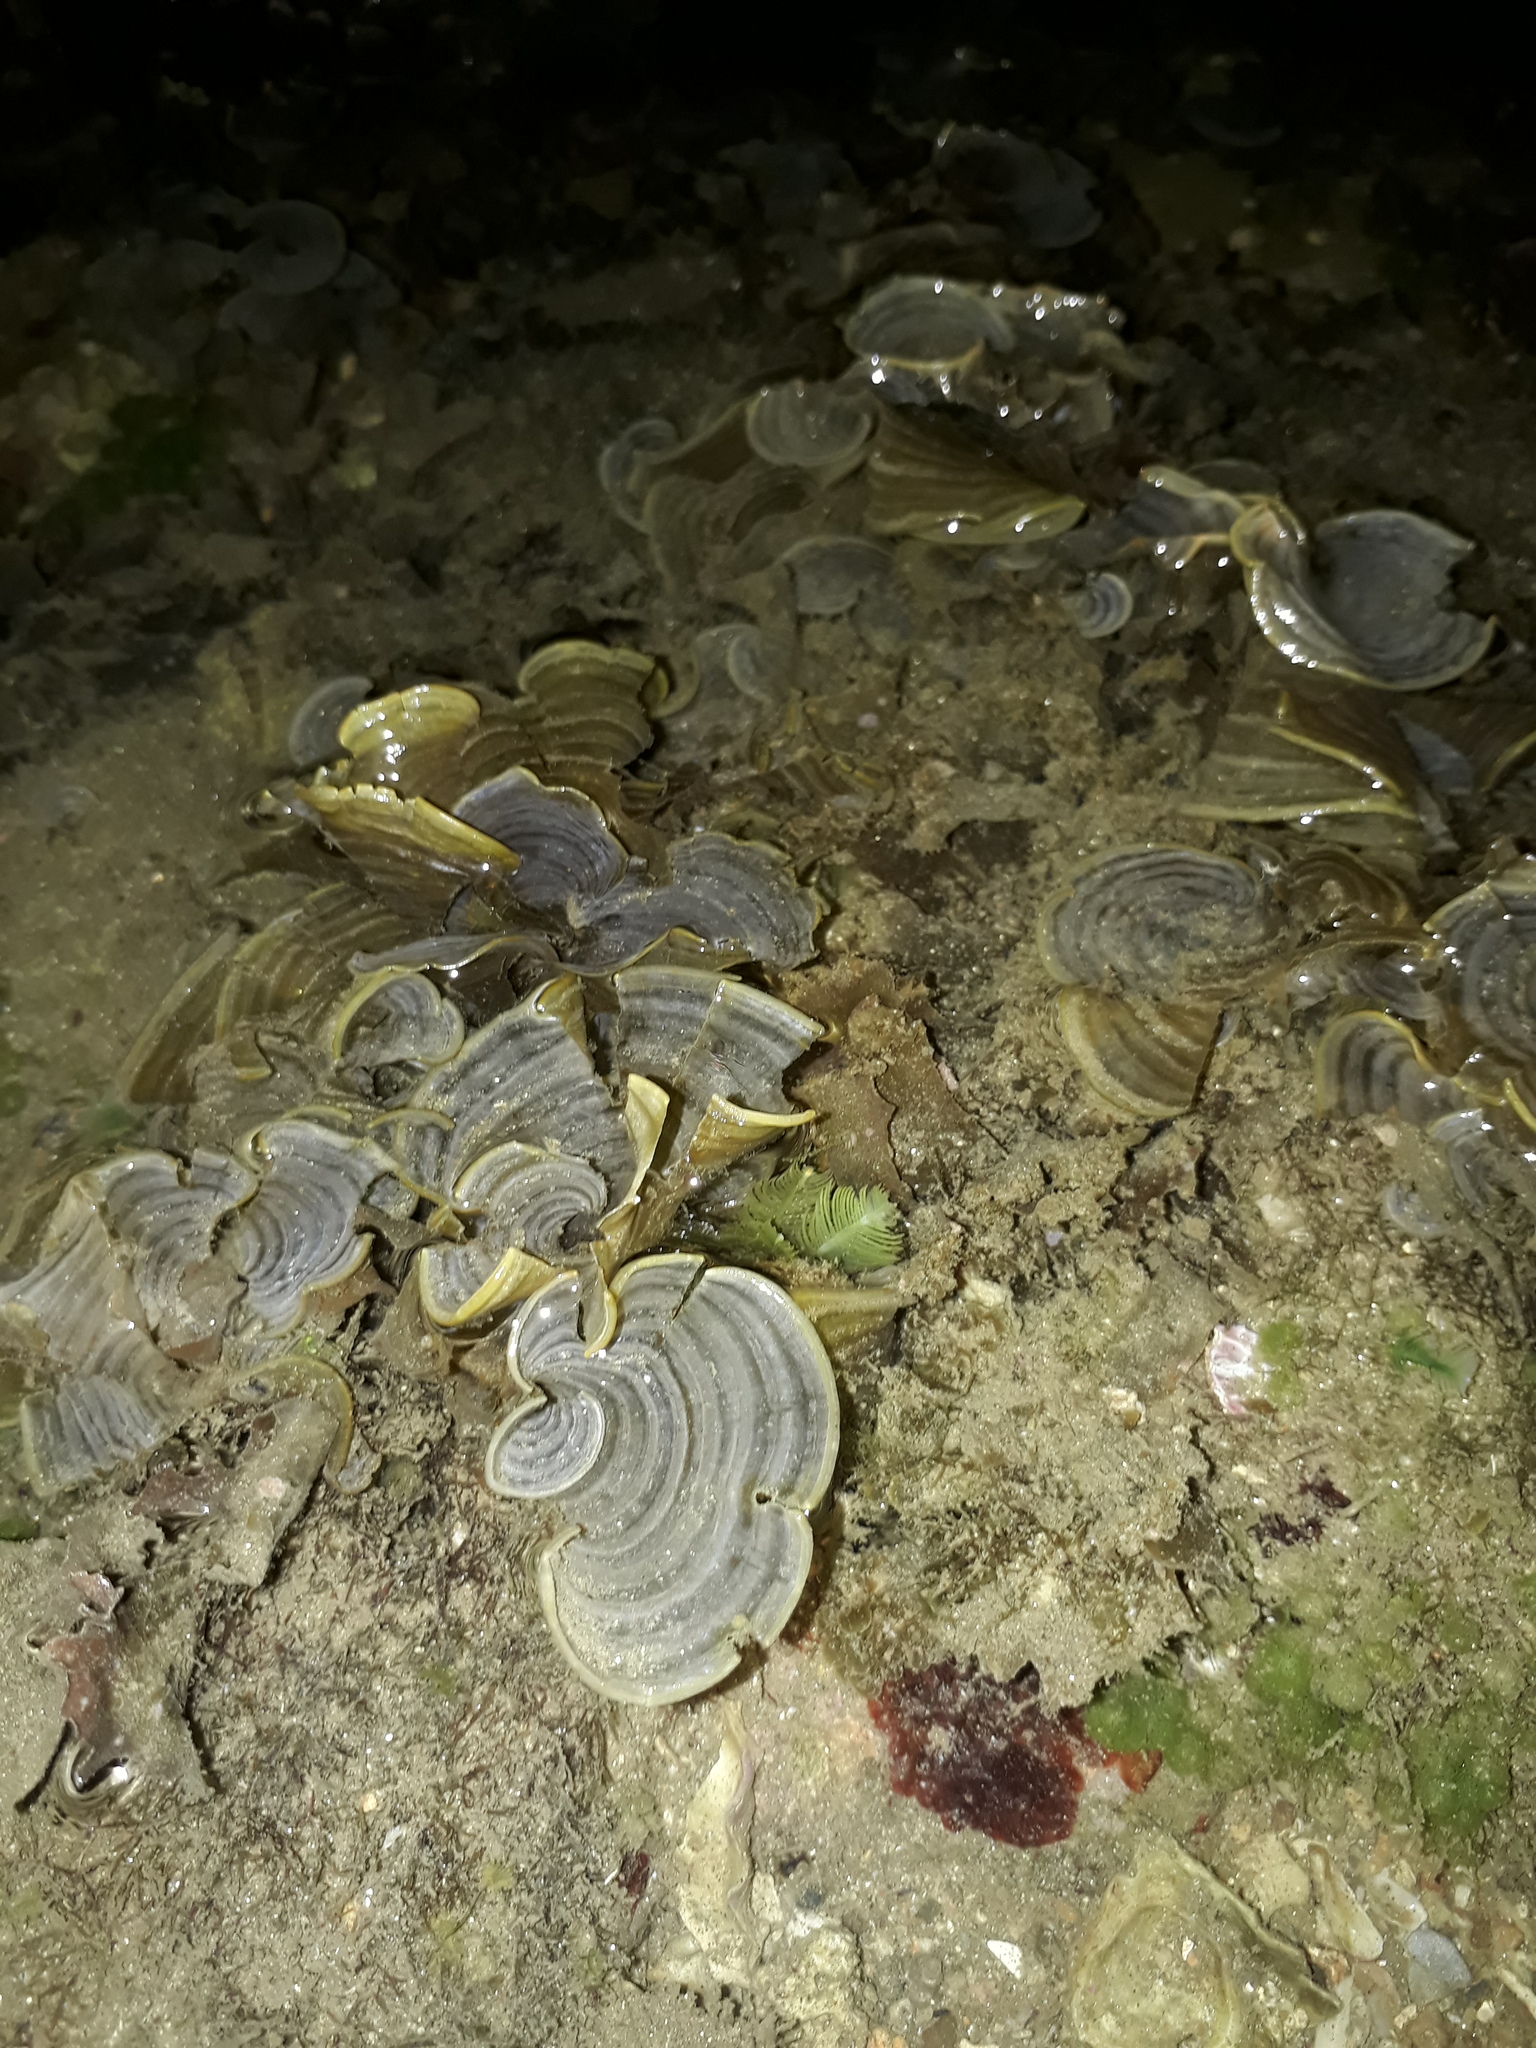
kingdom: Chromista
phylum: Ochrophyta
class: Phaeophyceae
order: Dictyotales
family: Dictyotaceae
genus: Padina
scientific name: Padina boergesenii
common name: Leafy rolled-blade algae
